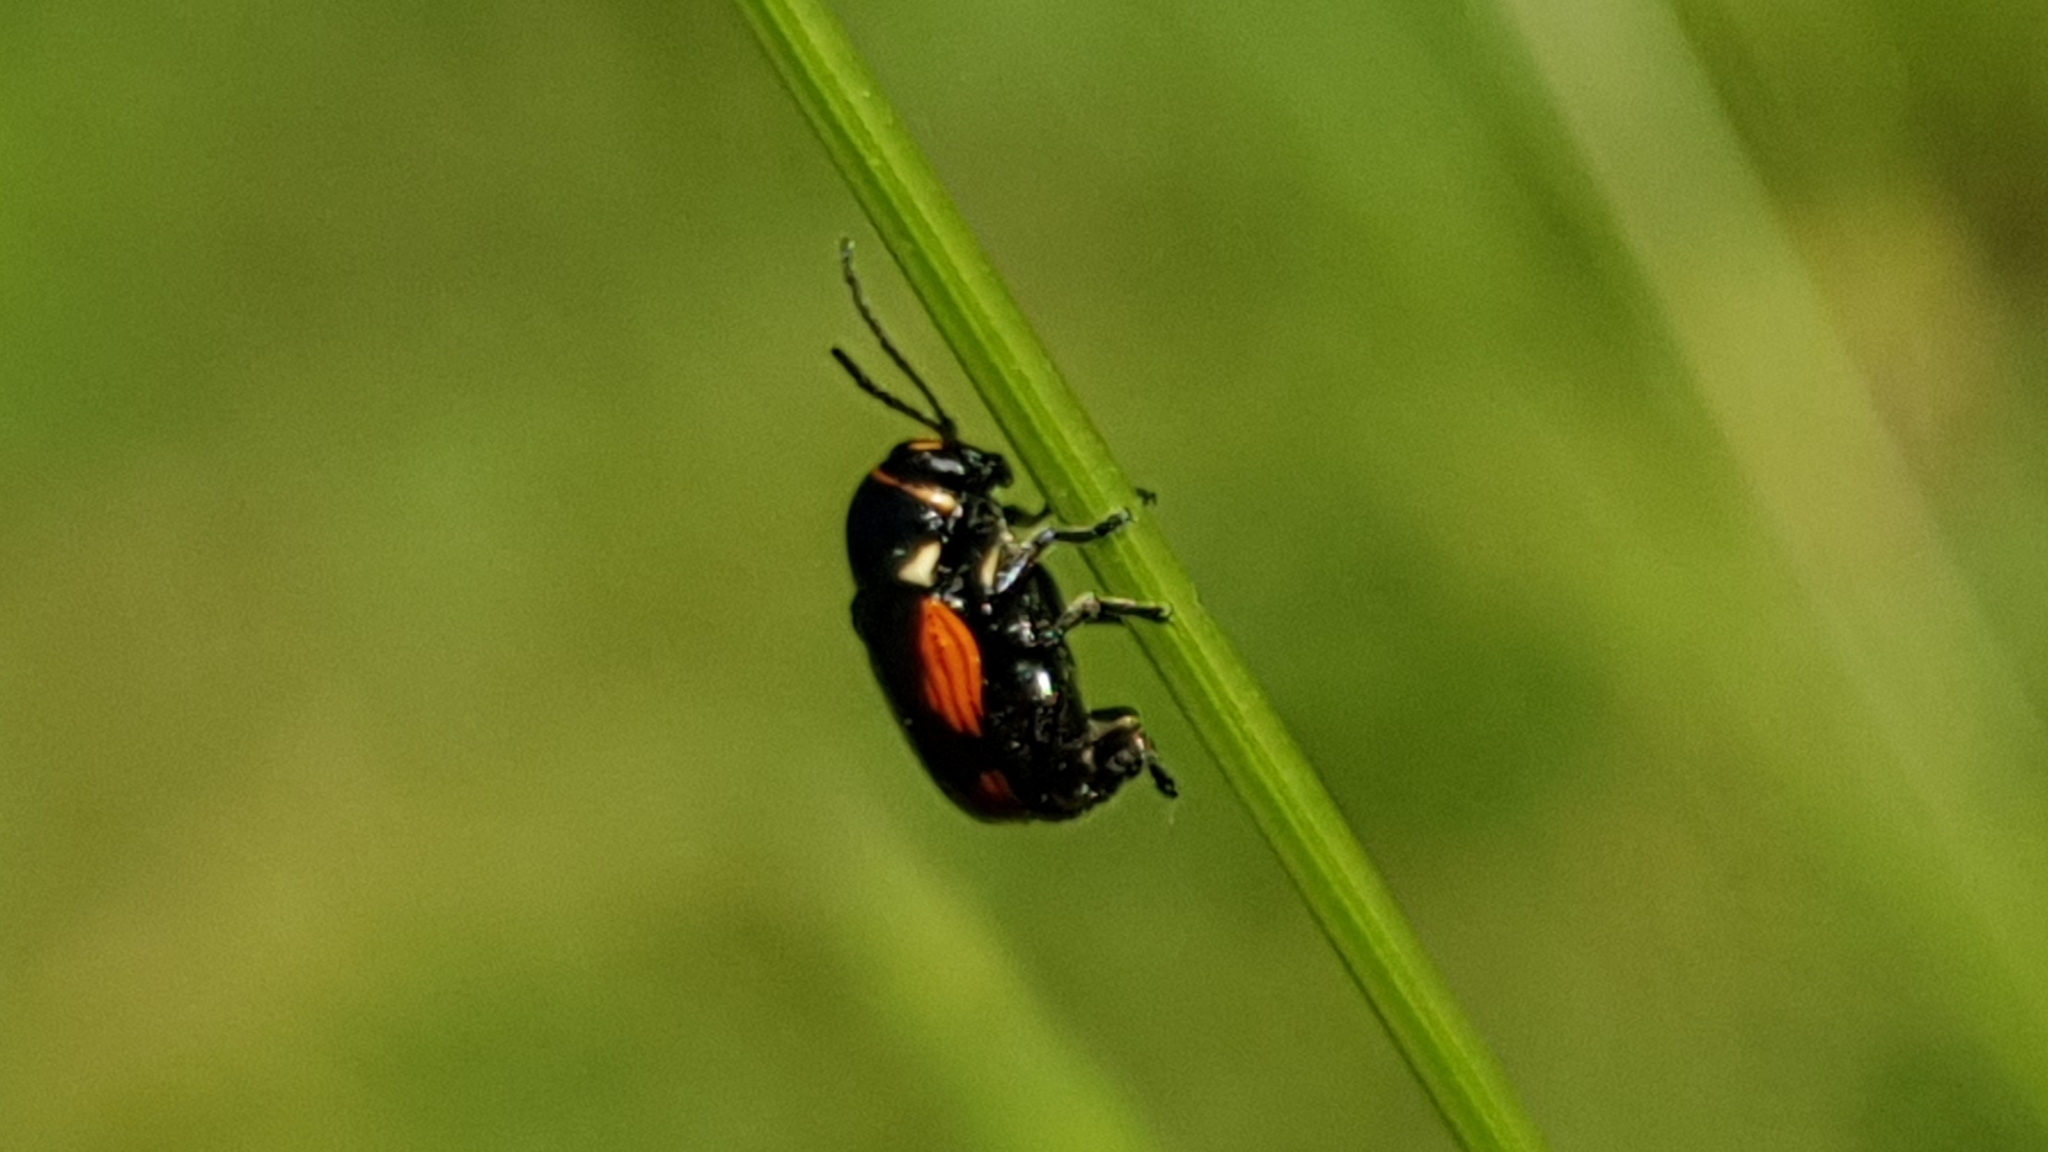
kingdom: Animalia
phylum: Arthropoda
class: Insecta
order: Coleoptera
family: Chrysomelidae
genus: Cryptocephalus
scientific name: Cryptocephalus moraei
